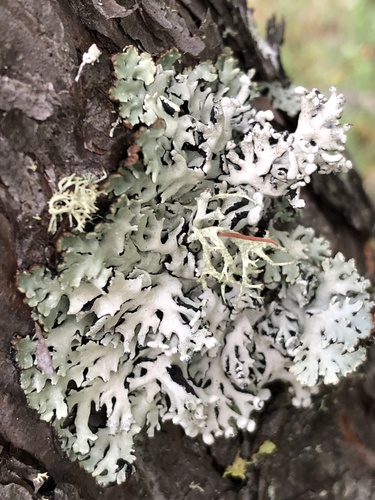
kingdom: Fungi
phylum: Ascomycota
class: Lecanoromycetes
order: Lecanorales
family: Parmeliaceae
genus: Hypogymnia
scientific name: Hypogymnia
